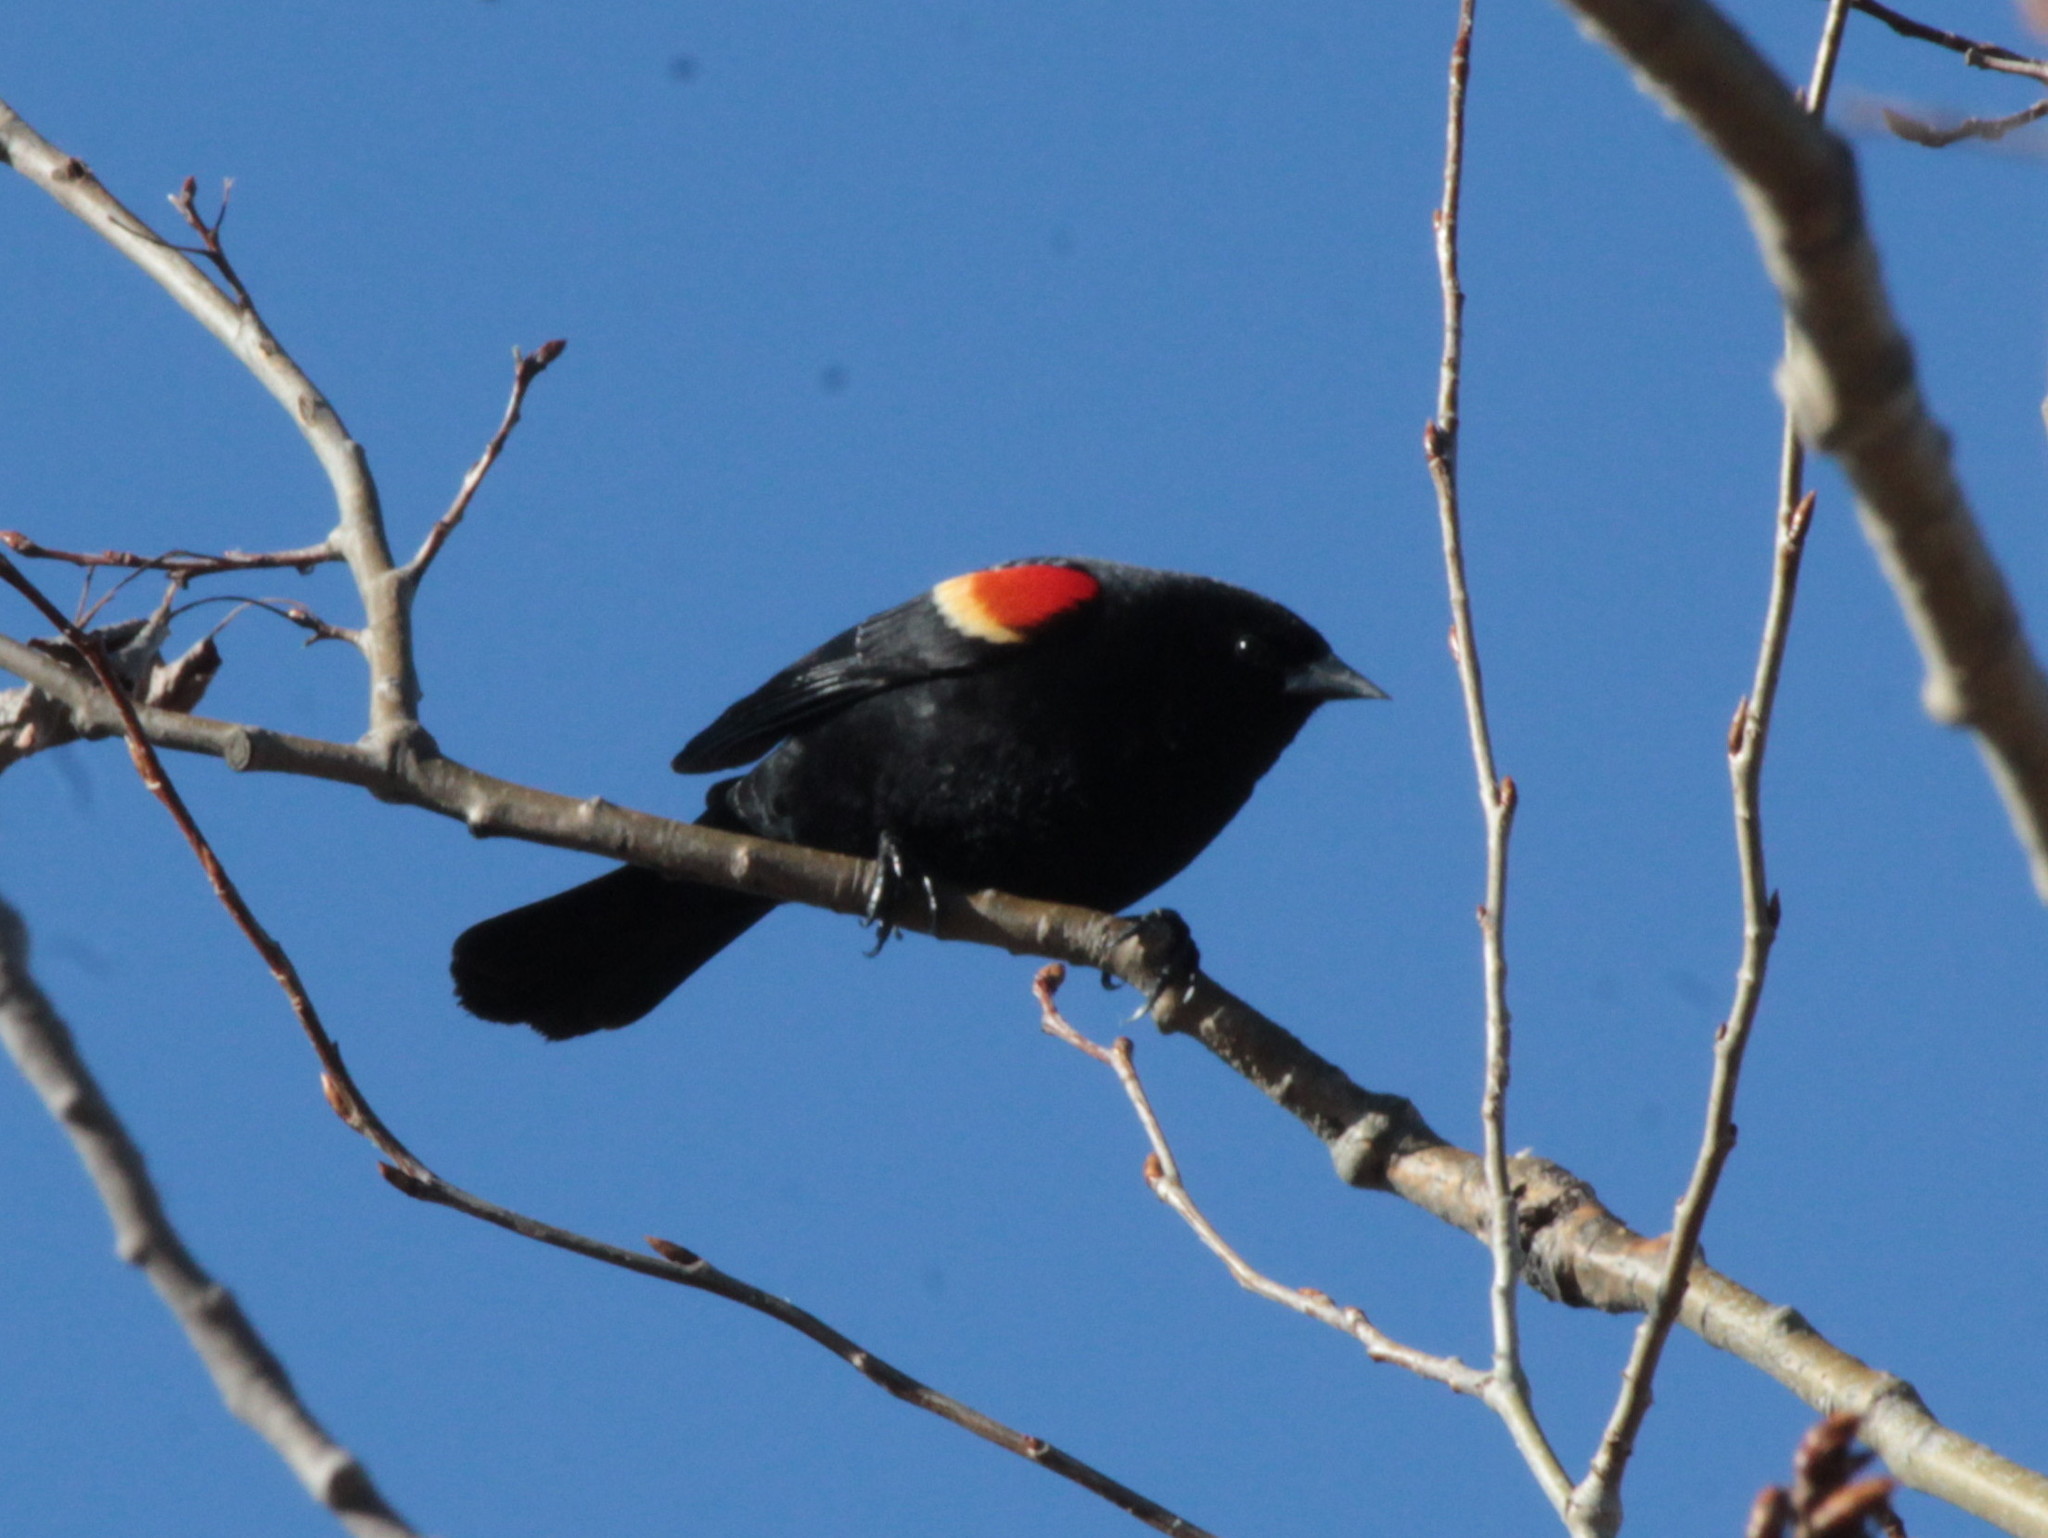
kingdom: Animalia
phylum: Chordata
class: Aves
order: Passeriformes
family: Icteridae
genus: Agelaius
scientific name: Agelaius phoeniceus
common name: Red-winged blackbird
